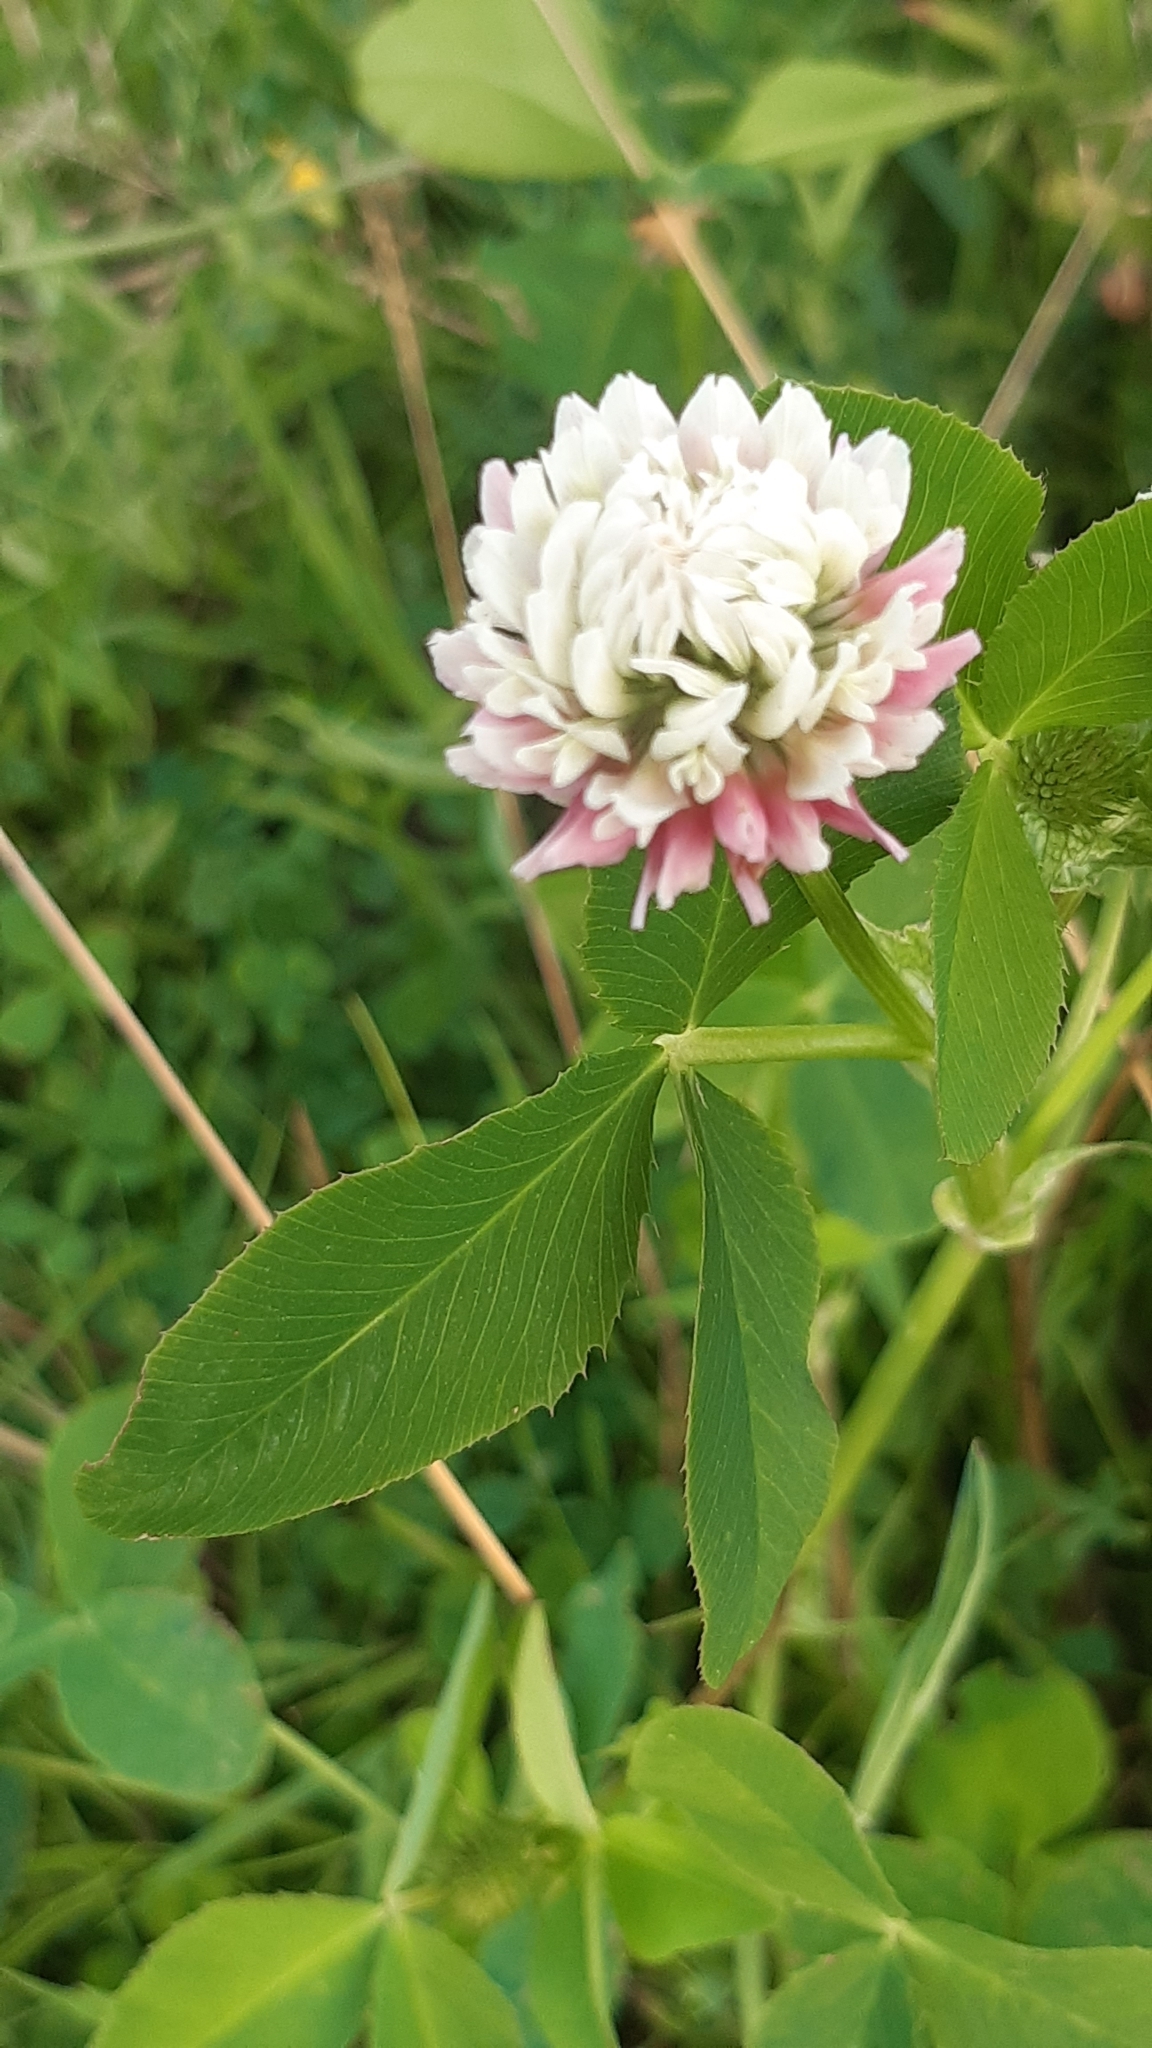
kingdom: Plantae
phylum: Tracheophyta
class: Magnoliopsida
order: Fabales
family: Fabaceae
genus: Trifolium
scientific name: Trifolium hybridum
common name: Alsike clover
